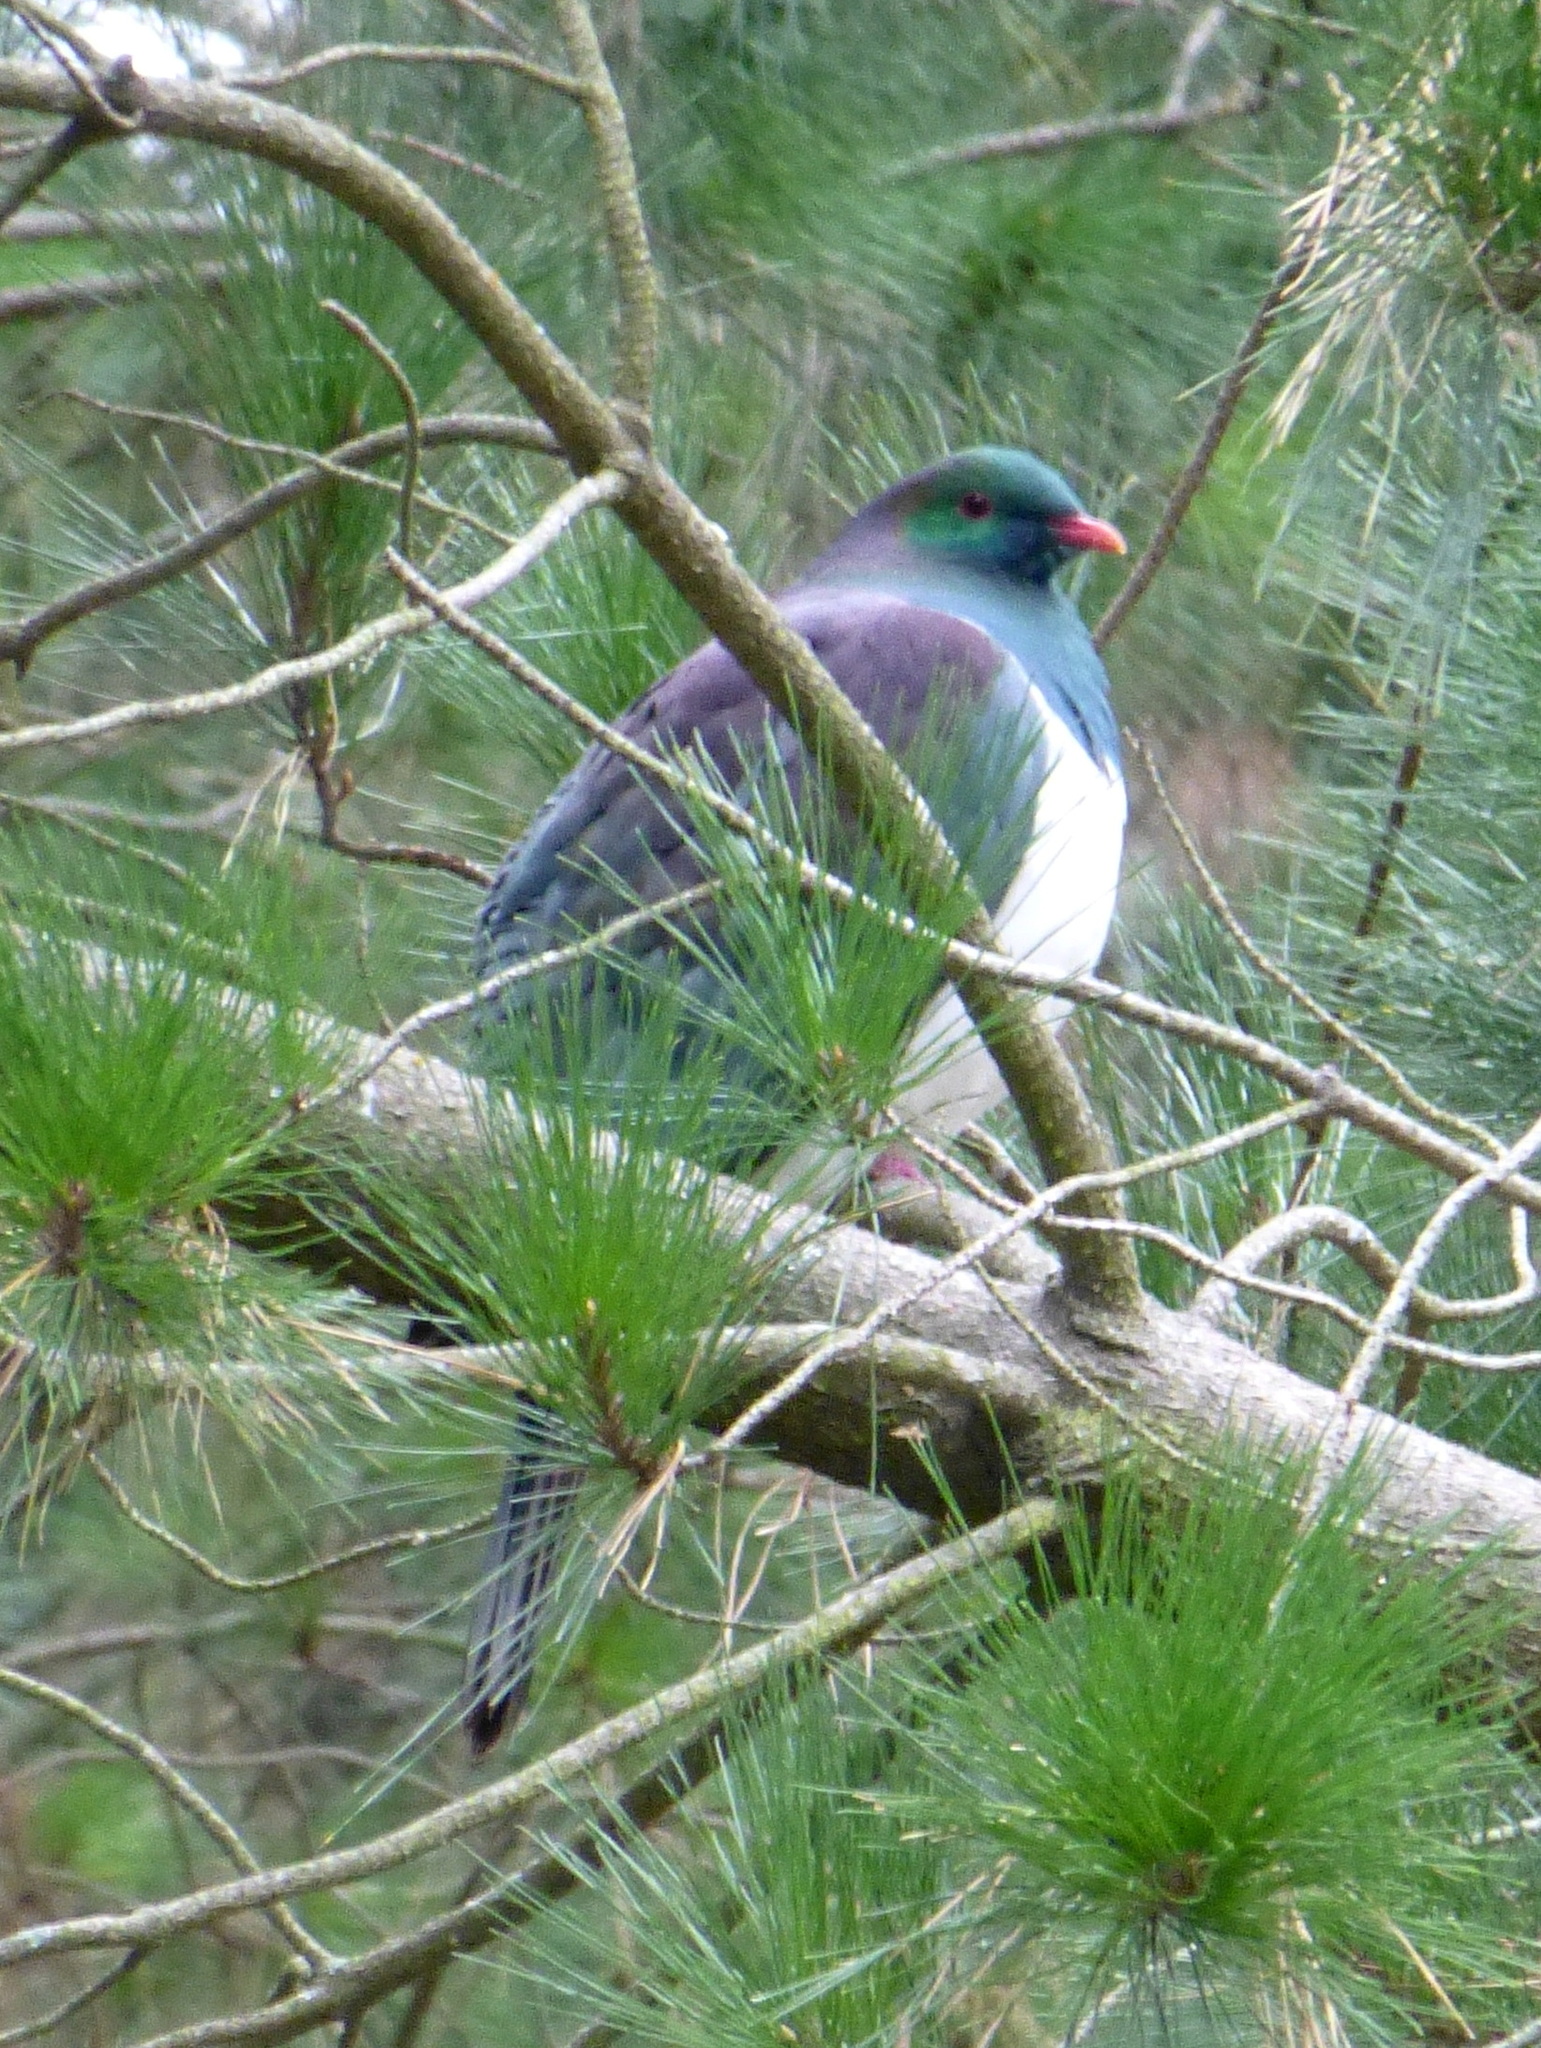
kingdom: Animalia
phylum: Chordata
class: Aves
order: Columbiformes
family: Columbidae
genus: Hemiphaga
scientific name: Hemiphaga novaeseelandiae
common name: New zealand pigeon
